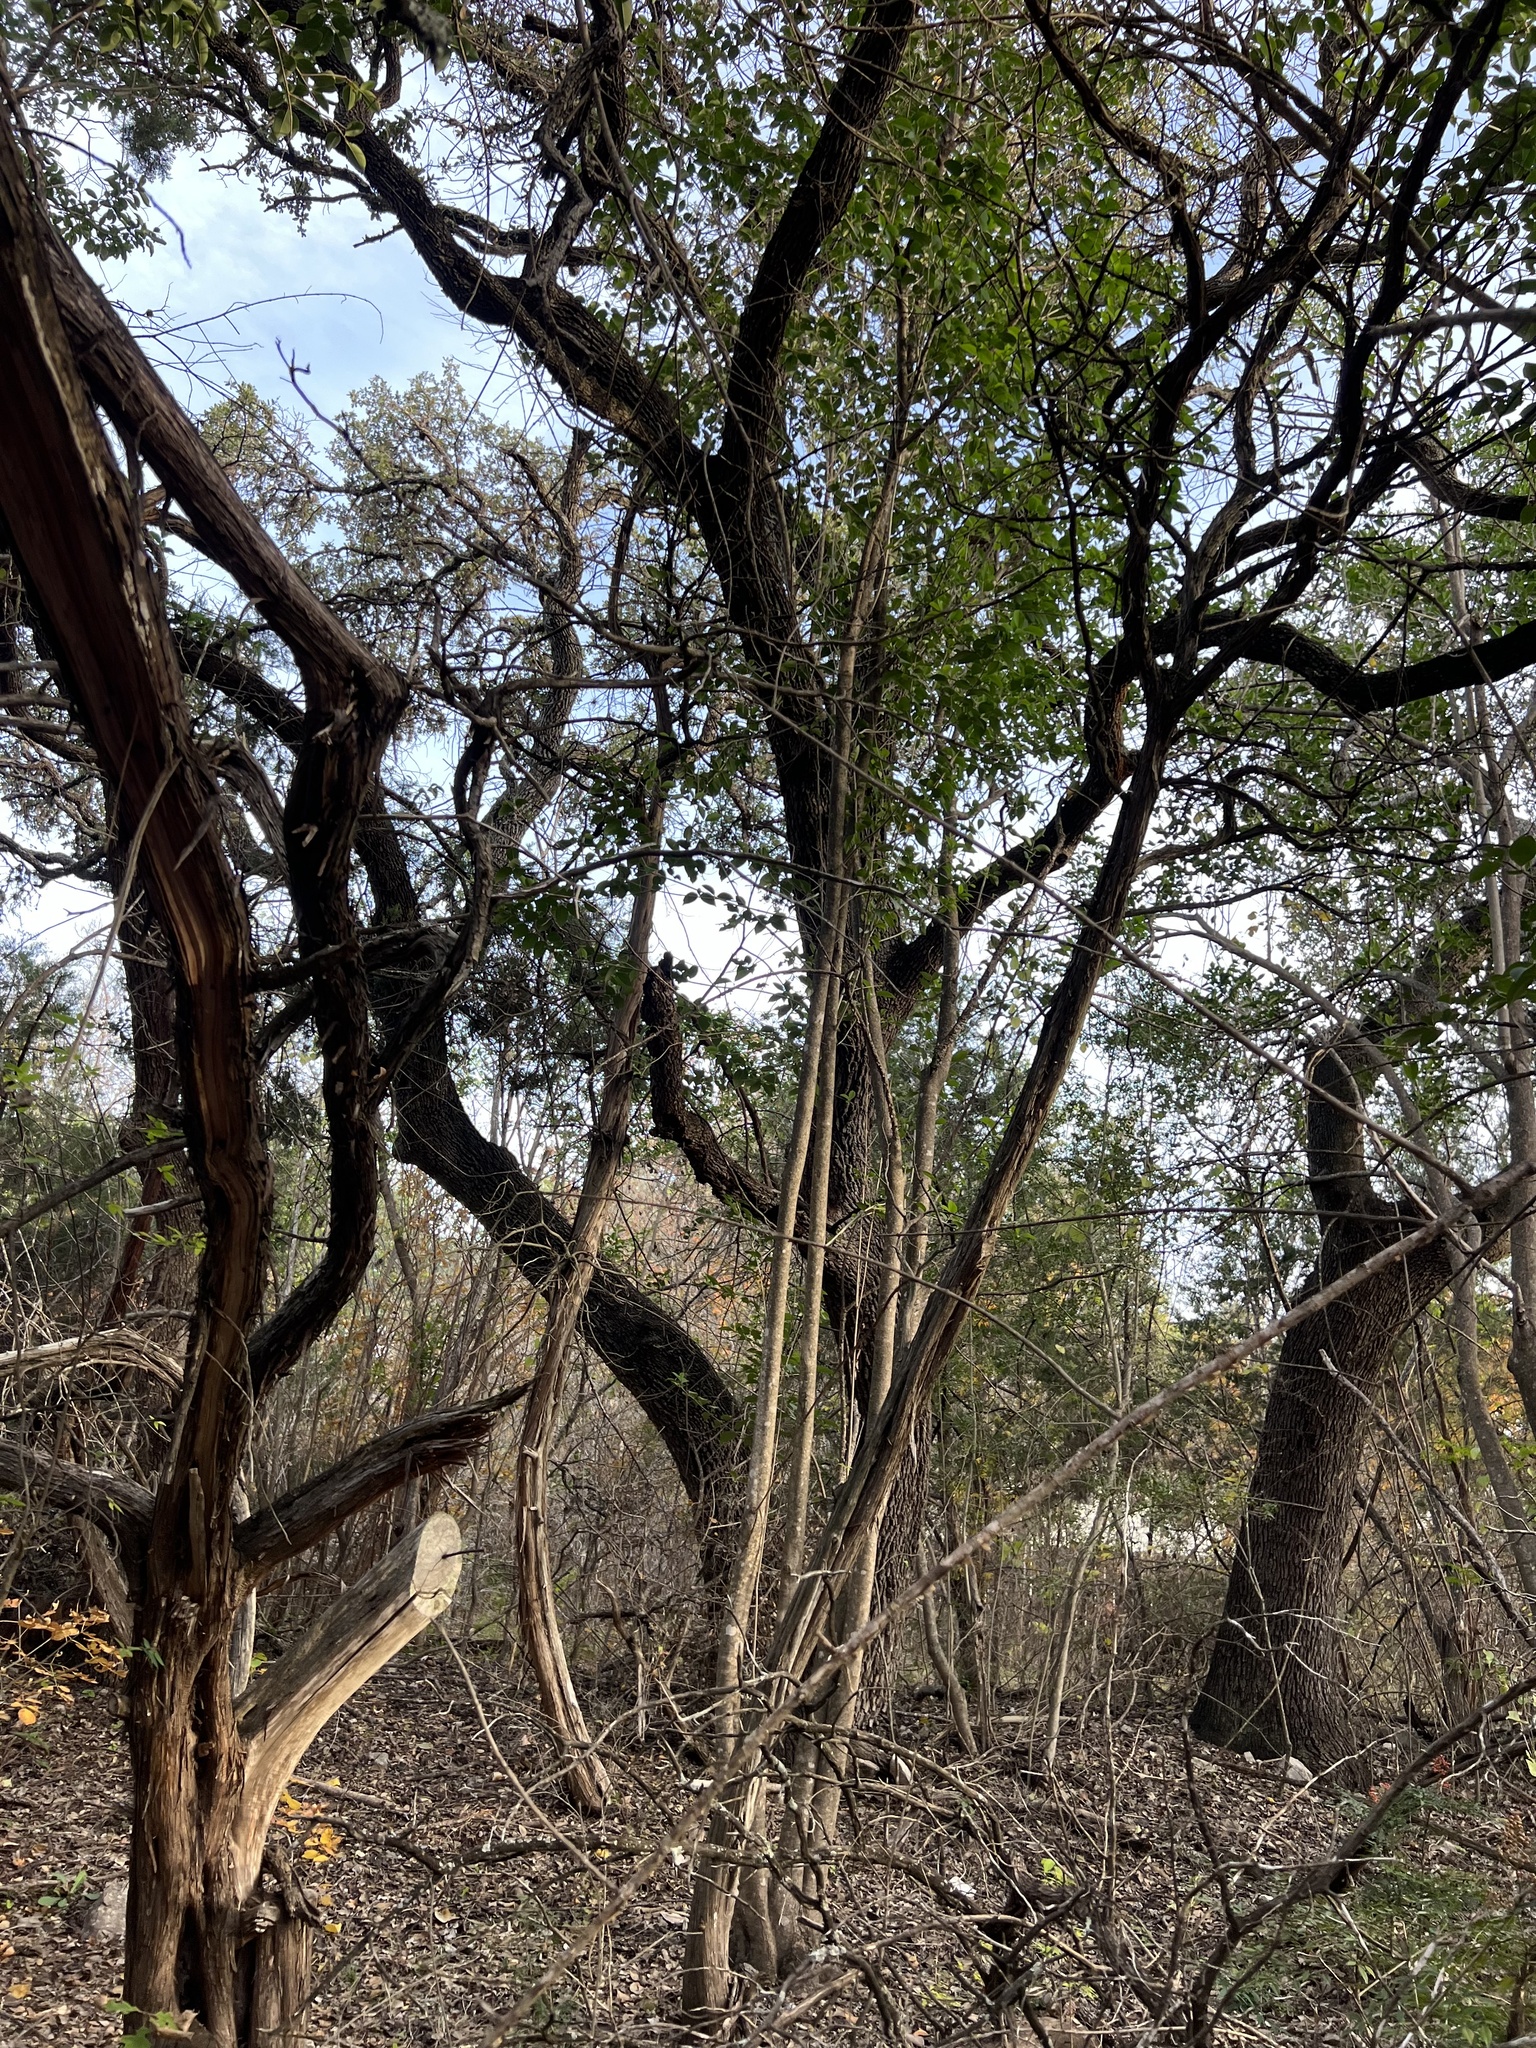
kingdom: Plantae
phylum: Tracheophyta
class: Magnoliopsida
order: Lamiales
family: Oleaceae
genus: Ligustrum
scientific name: Ligustrum lucidum
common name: Glossy privet
